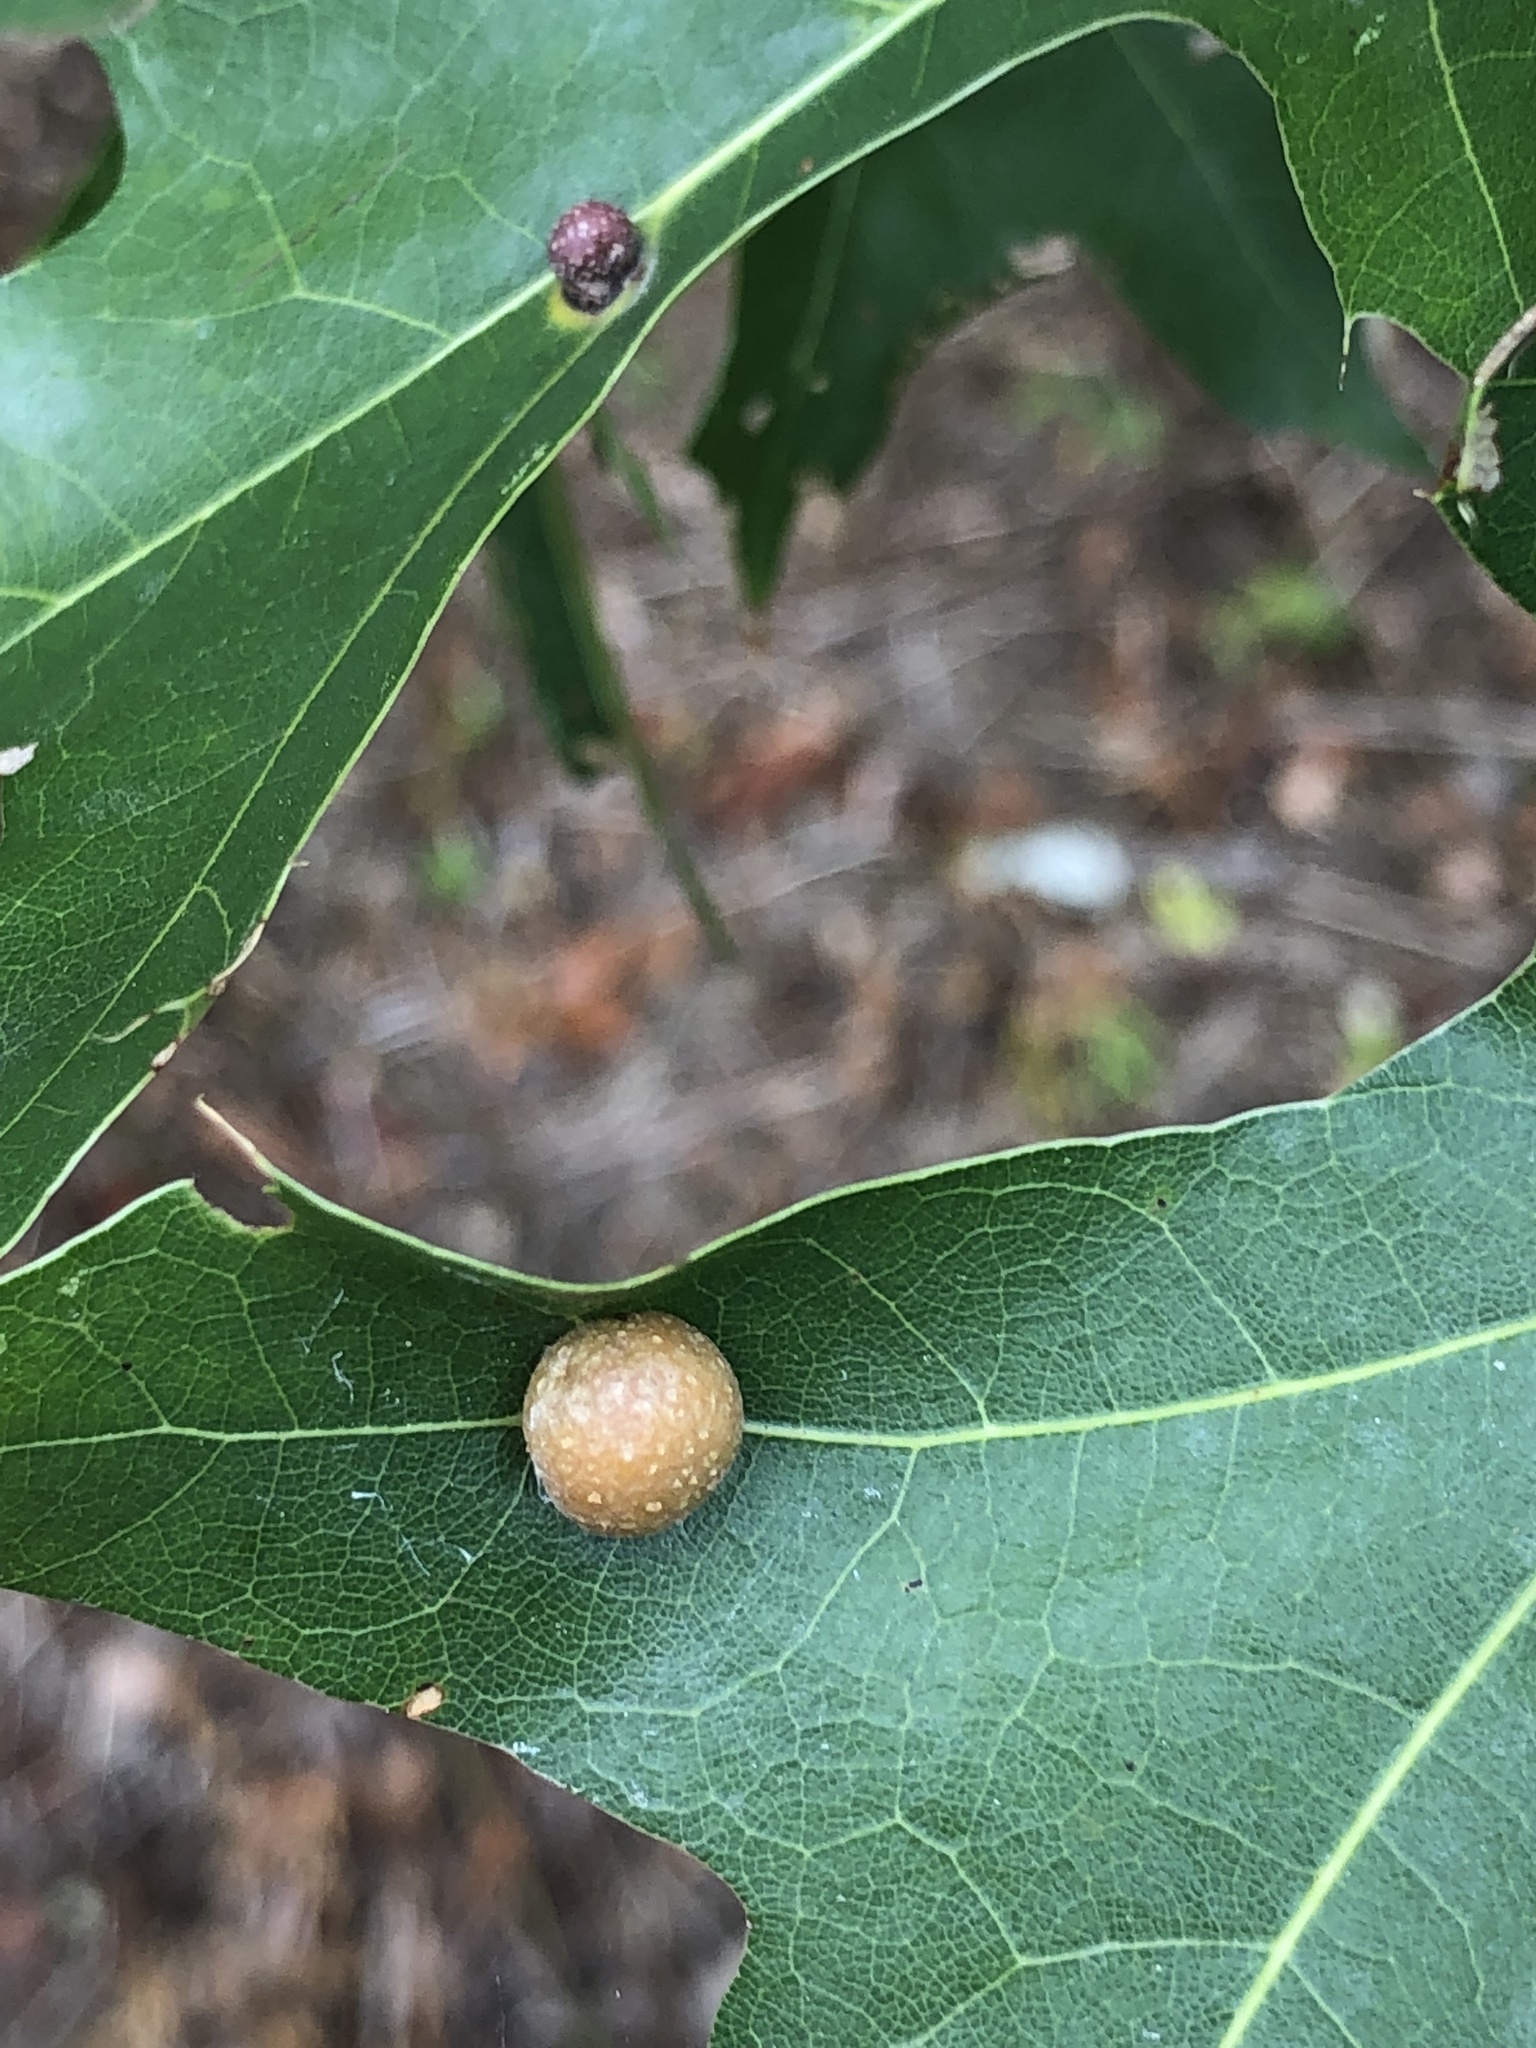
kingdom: Animalia
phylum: Arthropoda
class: Insecta
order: Diptera
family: Cecidomyiidae
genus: Polystepha
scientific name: Polystepha pilulae
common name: Oak leaf gall midge
